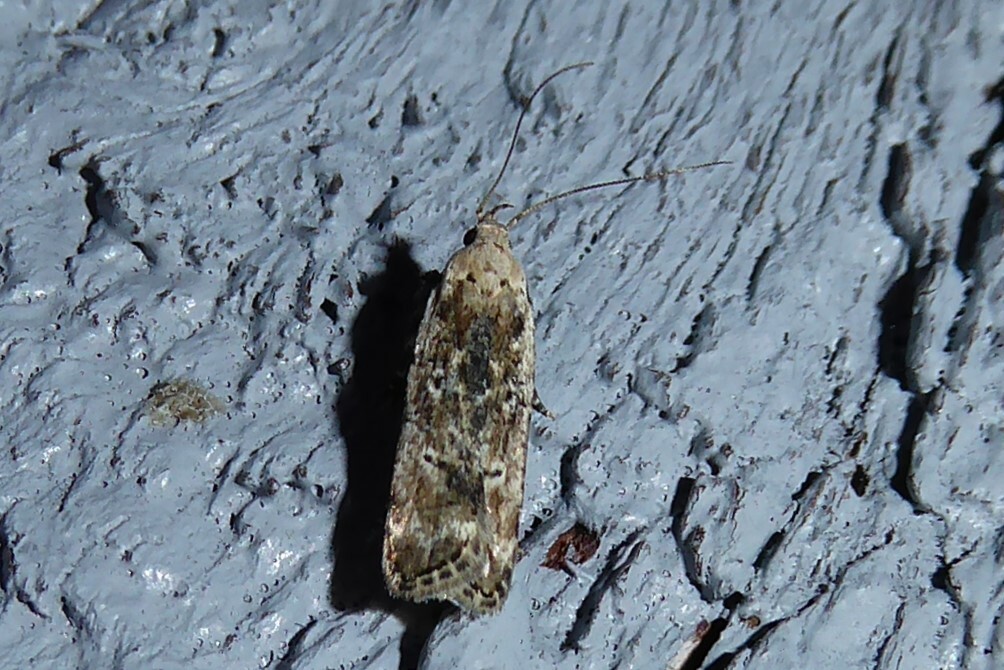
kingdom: Animalia
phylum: Arthropoda
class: Insecta
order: Lepidoptera
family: Gelechiidae
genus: Anisoplaca
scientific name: Anisoplaca achyrota
